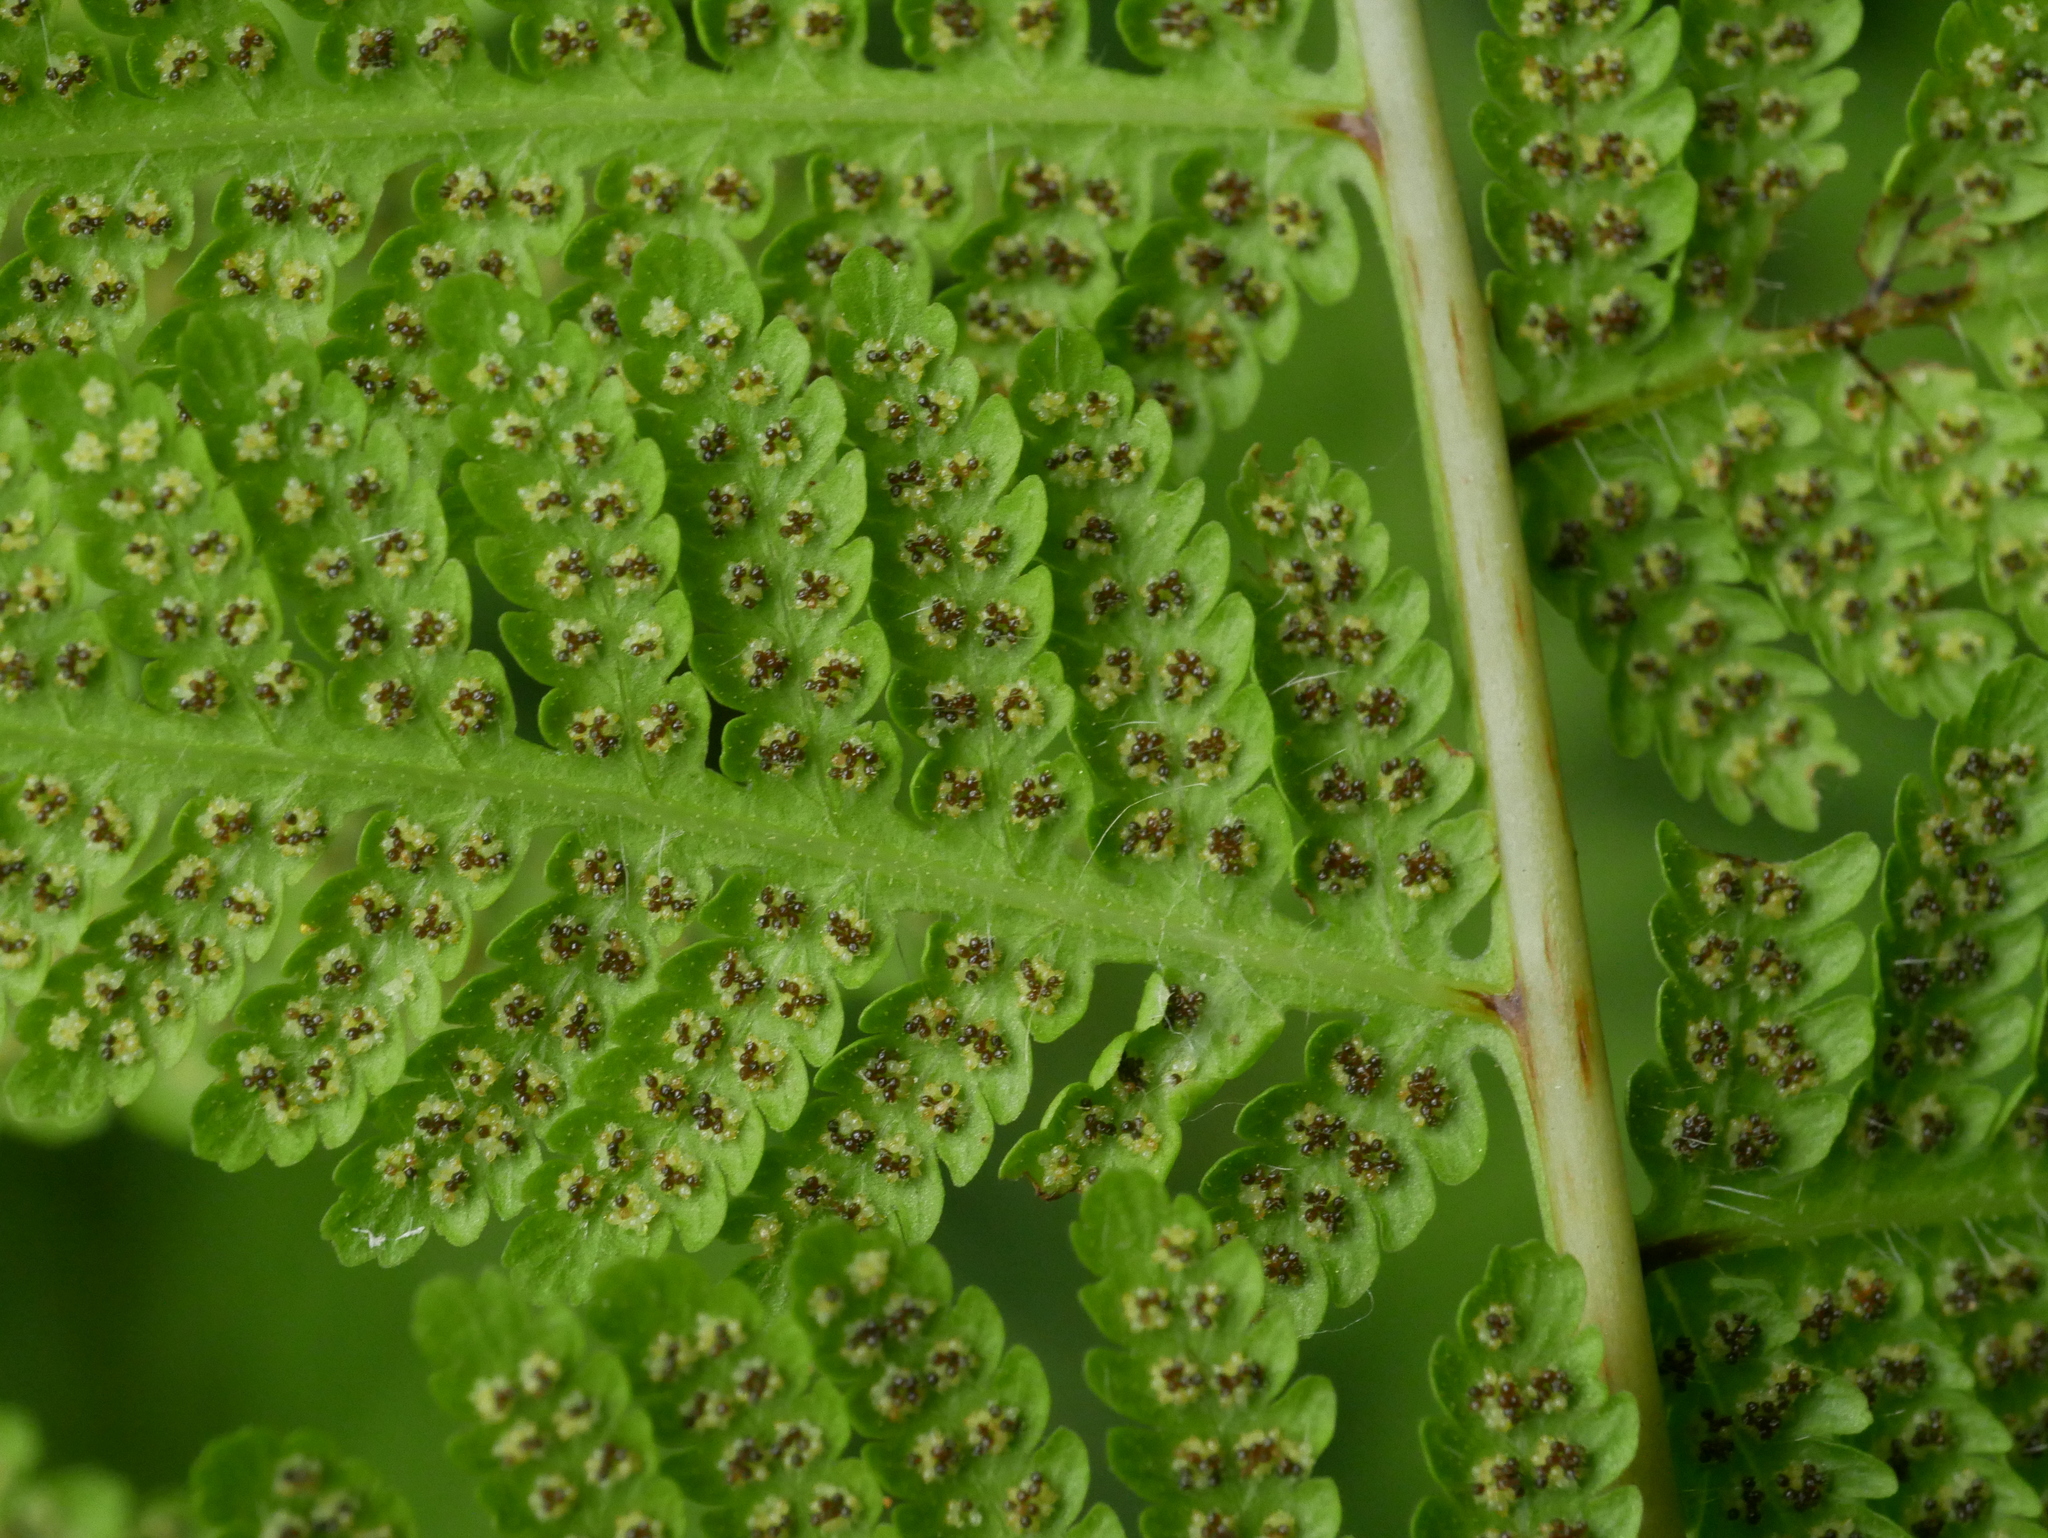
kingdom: Plantae
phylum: Tracheophyta
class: Polypodiopsida
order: Polypodiales
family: Thelypteridaceae
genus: Macrothelypteris
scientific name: Macrothelypteris torresiana
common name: Swordfern
